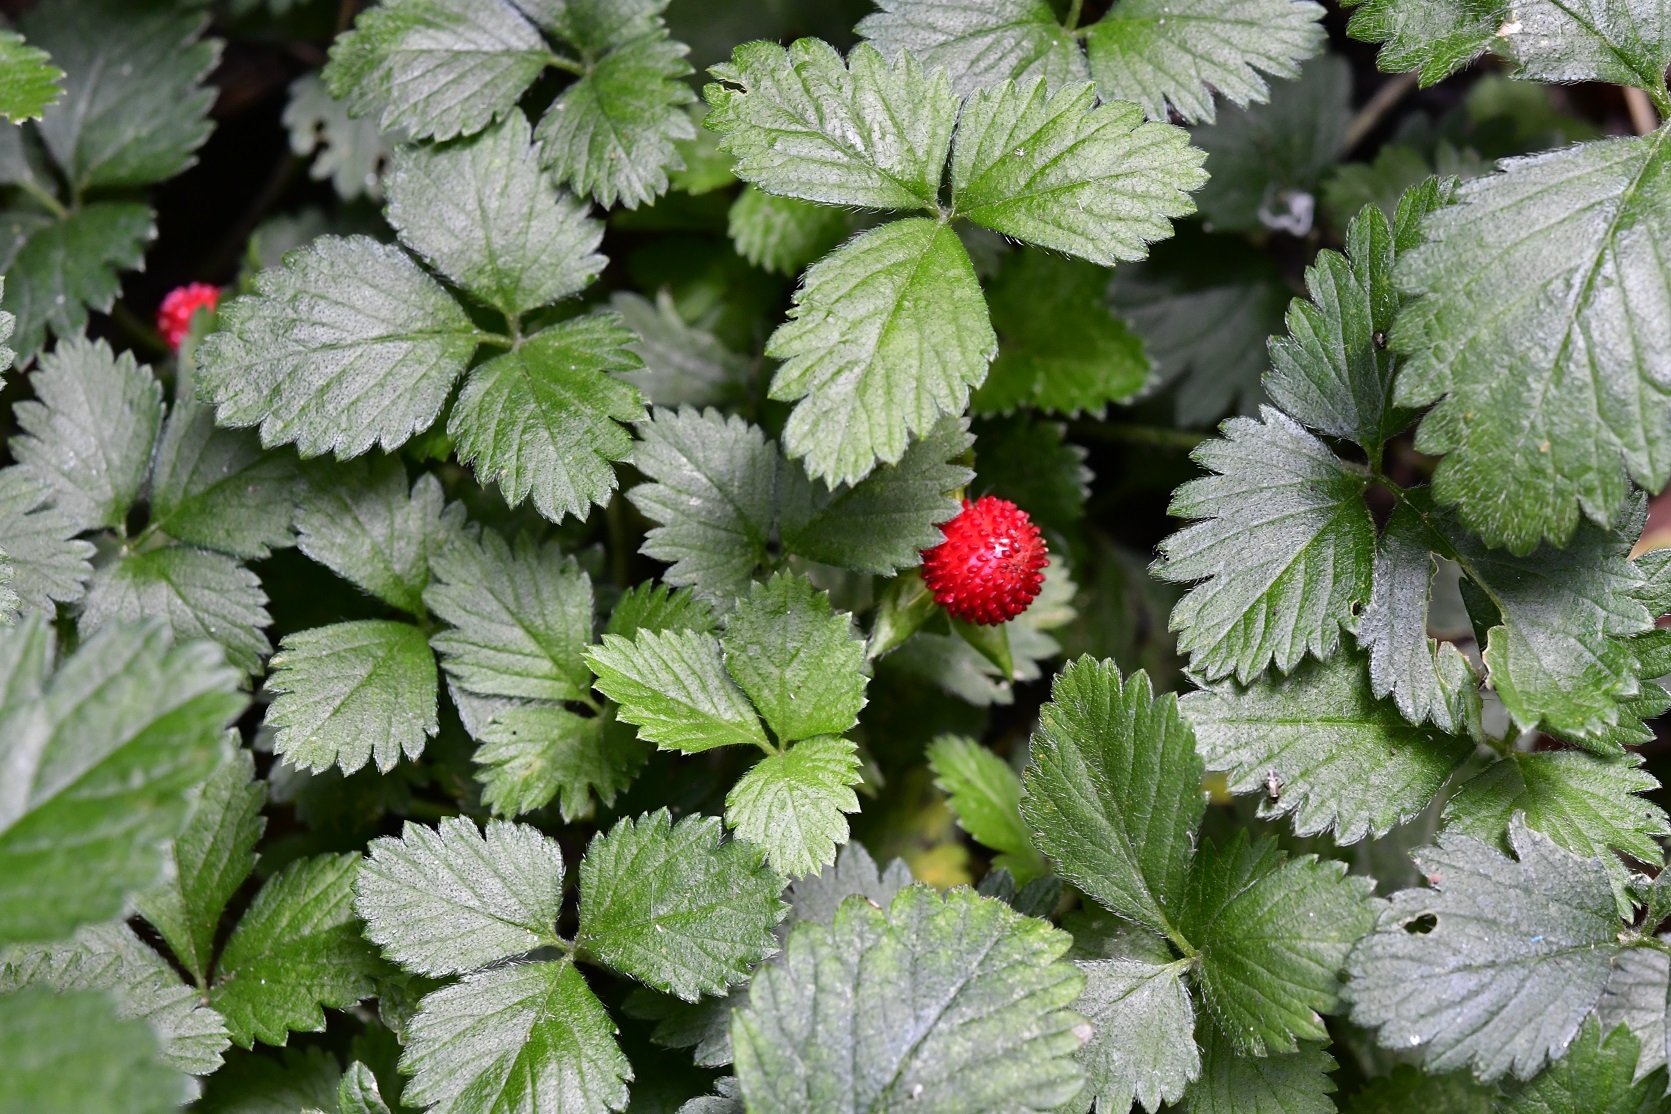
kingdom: Plantae
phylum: Tracheophyta
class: Magnoliopsida
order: Rosales
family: Rosaceae
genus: Potentilla
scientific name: Potentilla indica
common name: Yellow-flowered strawberry
